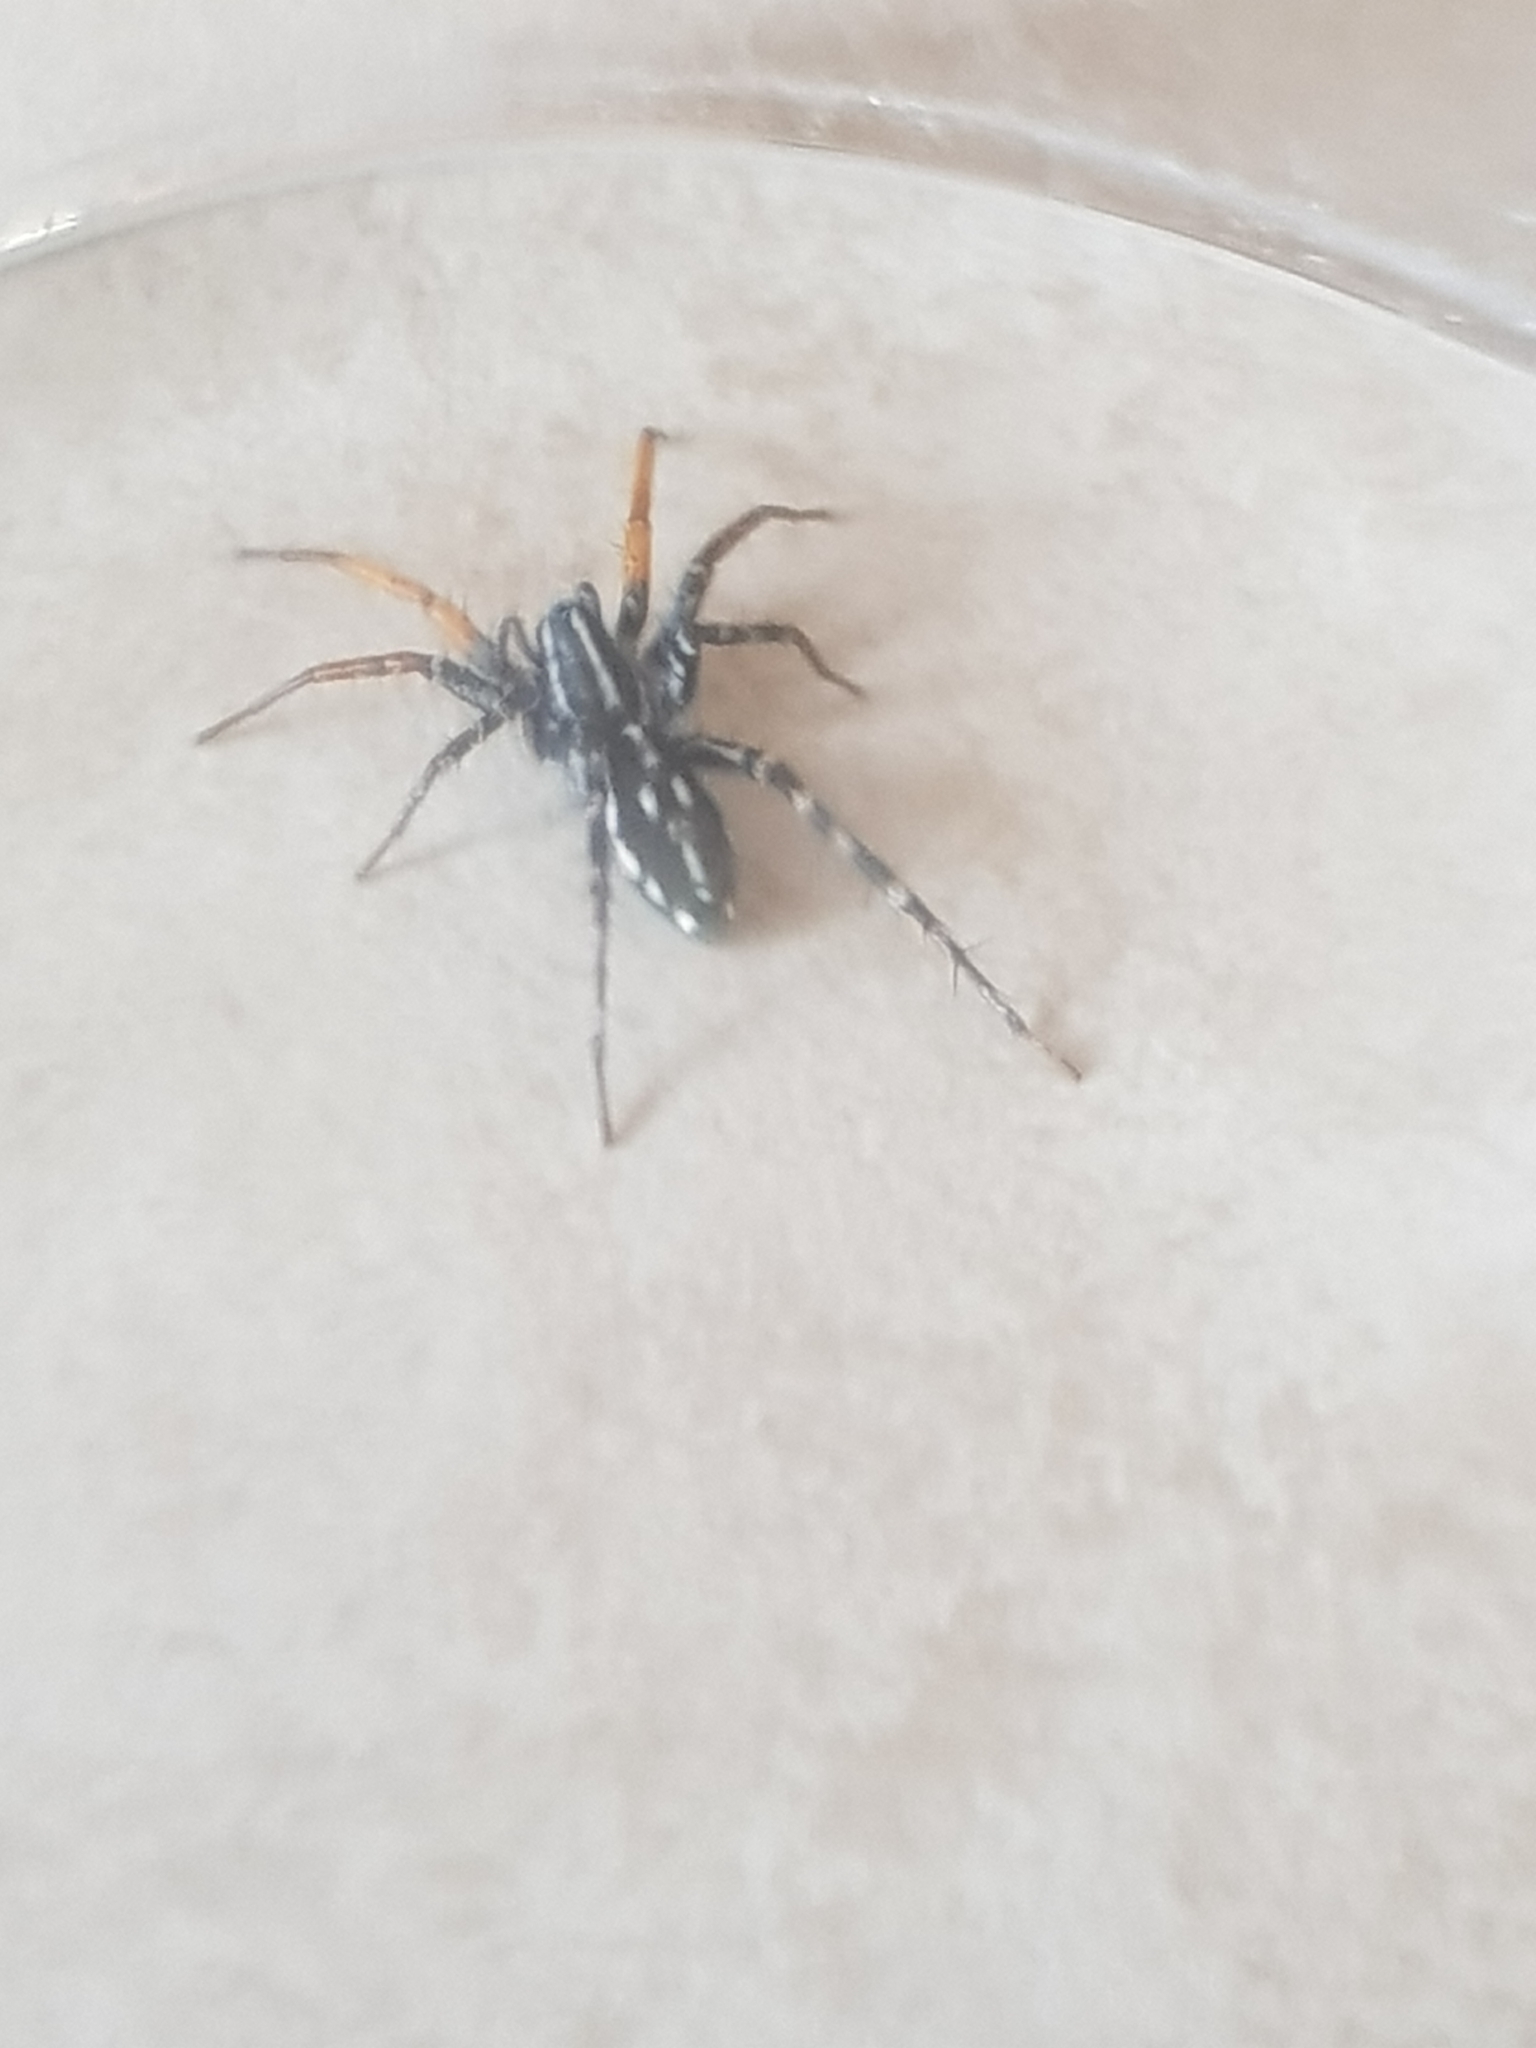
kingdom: Animalia
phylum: Arthropoda
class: Arachnida
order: Araneae
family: Corinnidae
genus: Nyssus
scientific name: Nyssus coloripes
